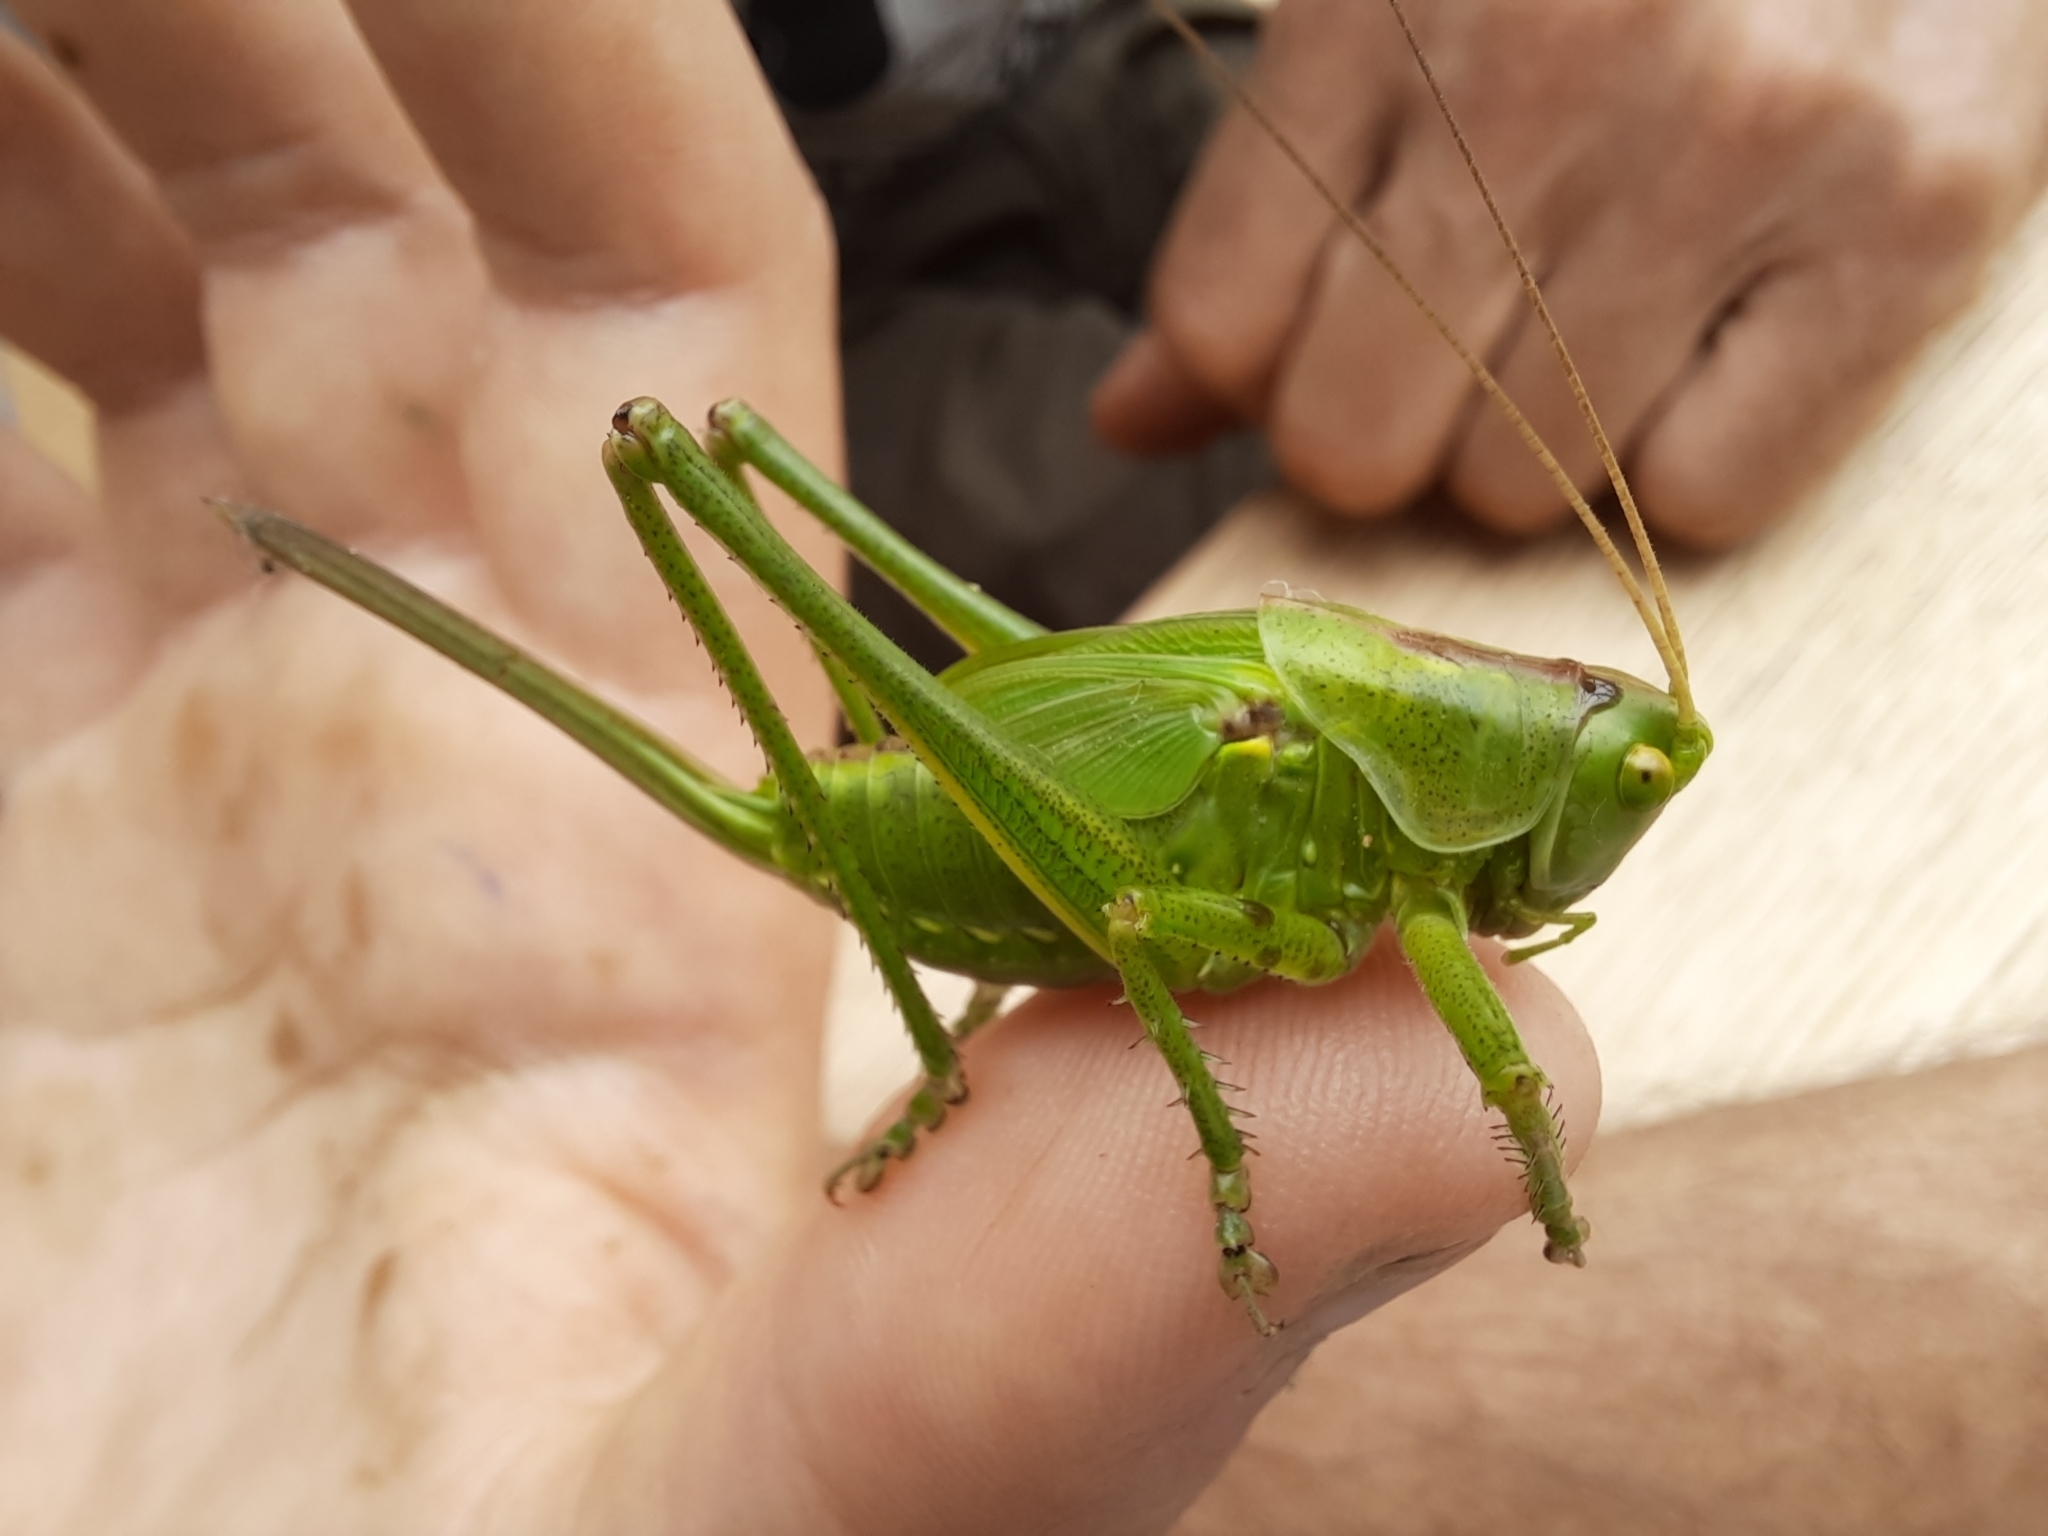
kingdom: Animalia
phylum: Arthropoda
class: Insecta
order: Orthoptera
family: Tettigoniidae
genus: Tettigonia
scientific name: Tettigonia viridissima
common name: Great green bush-cricket
